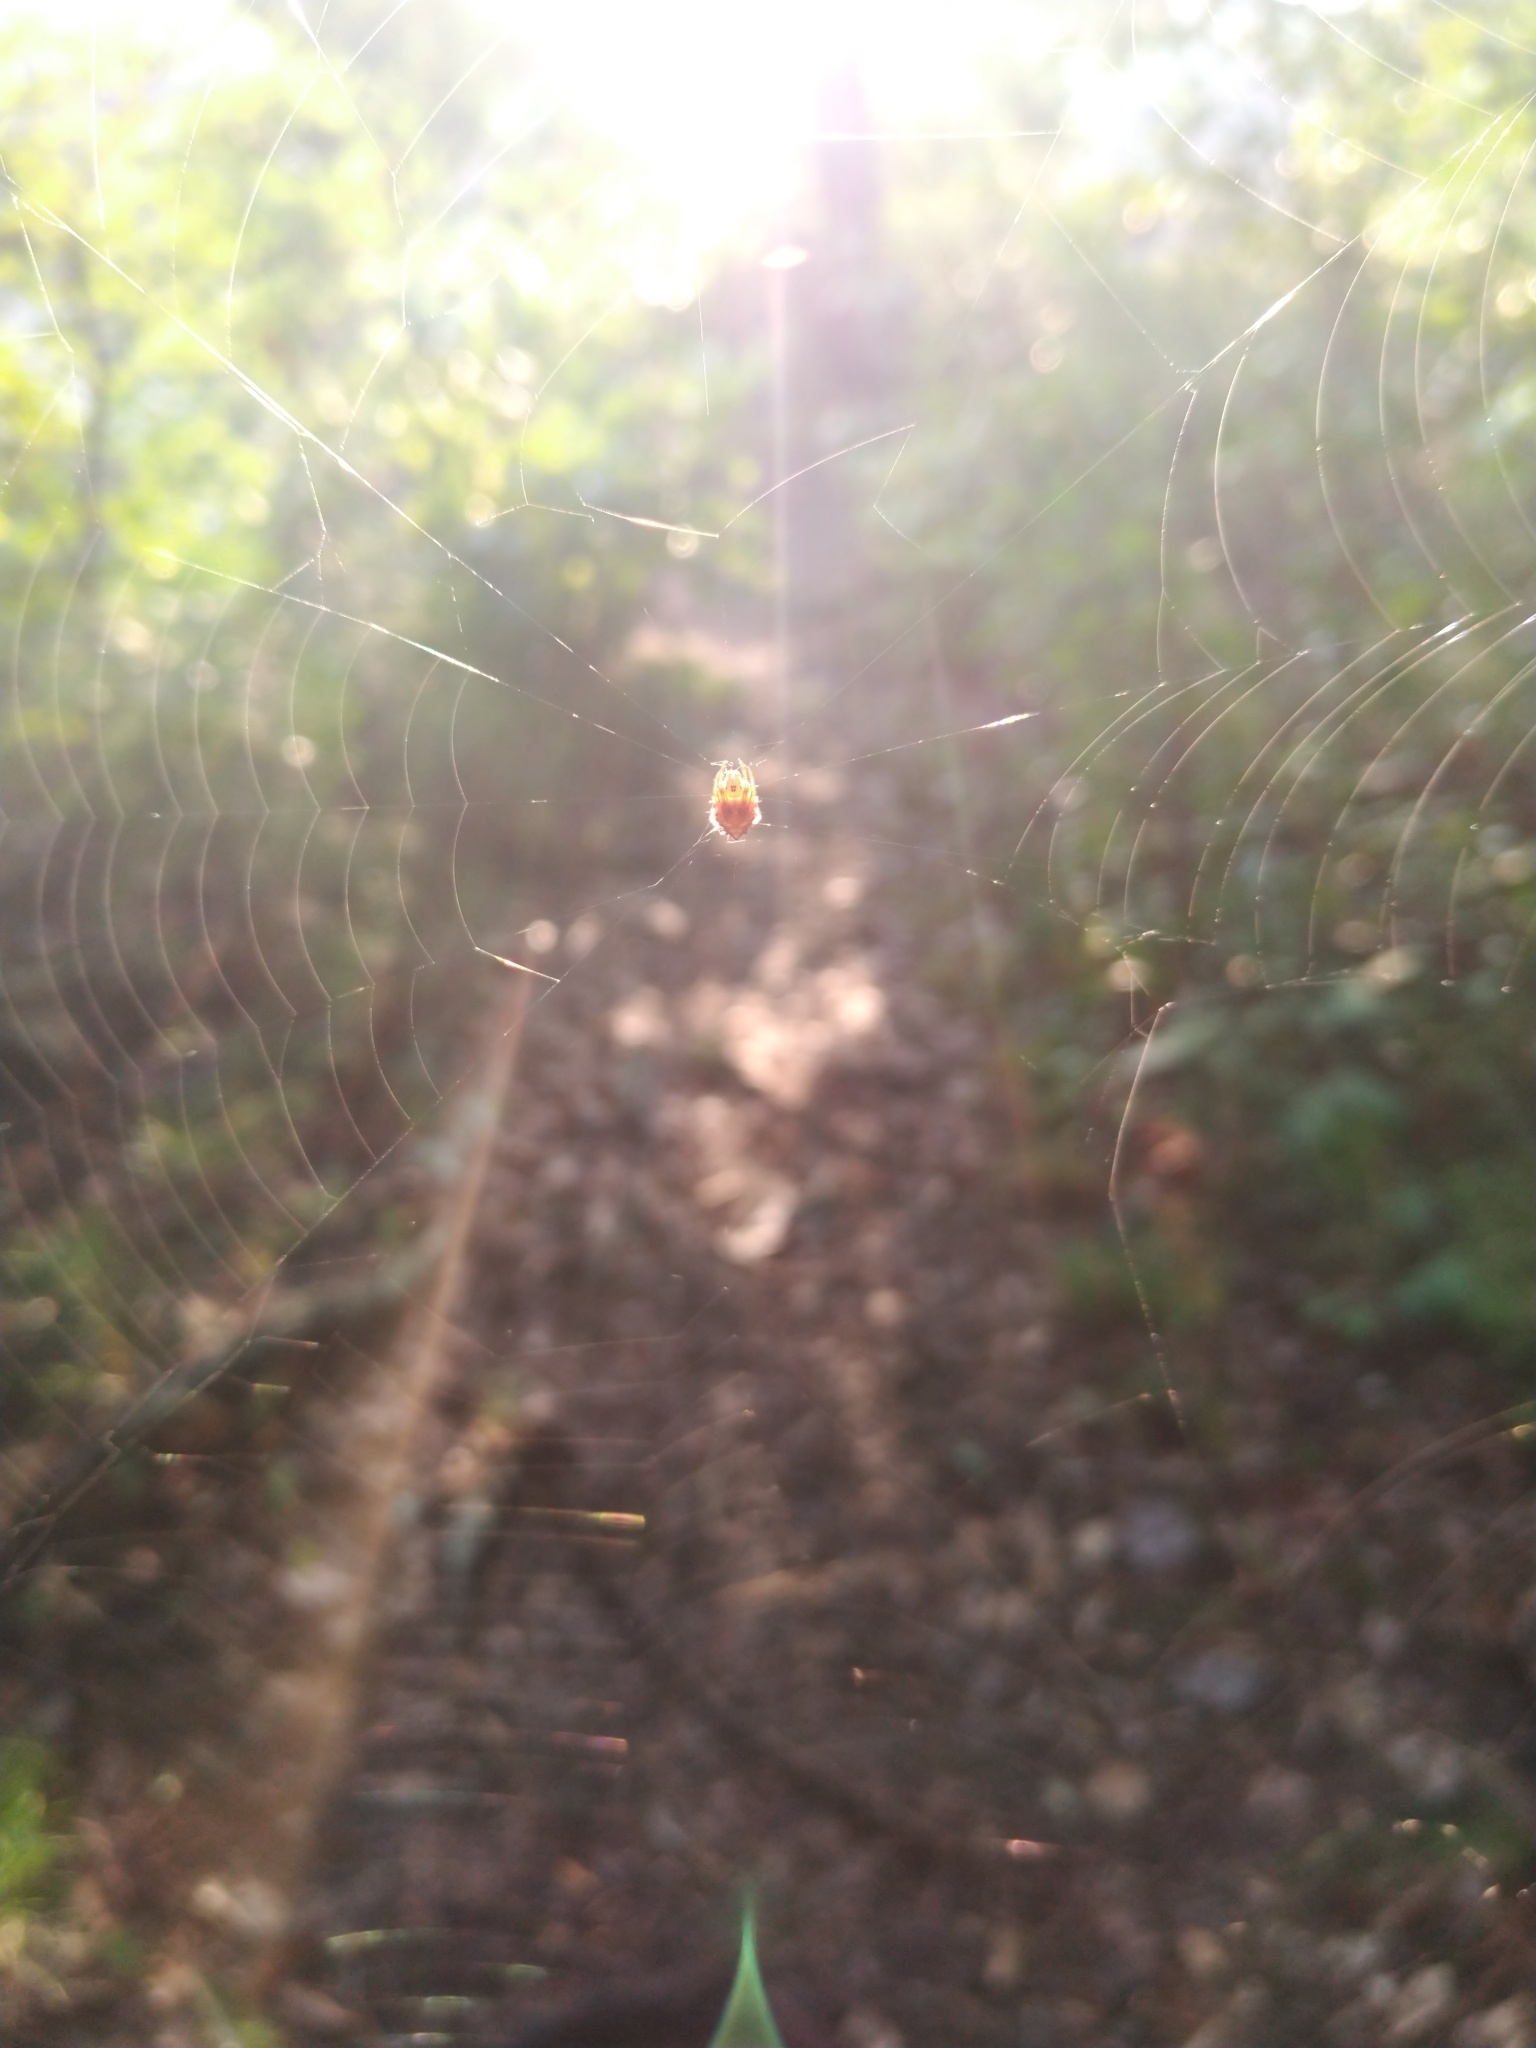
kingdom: Animalia
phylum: Arthropoda
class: Arachnida
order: Araneae
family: Araneidae
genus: Verrucosa
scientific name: Verrucosa arenata
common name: Orb weavers
